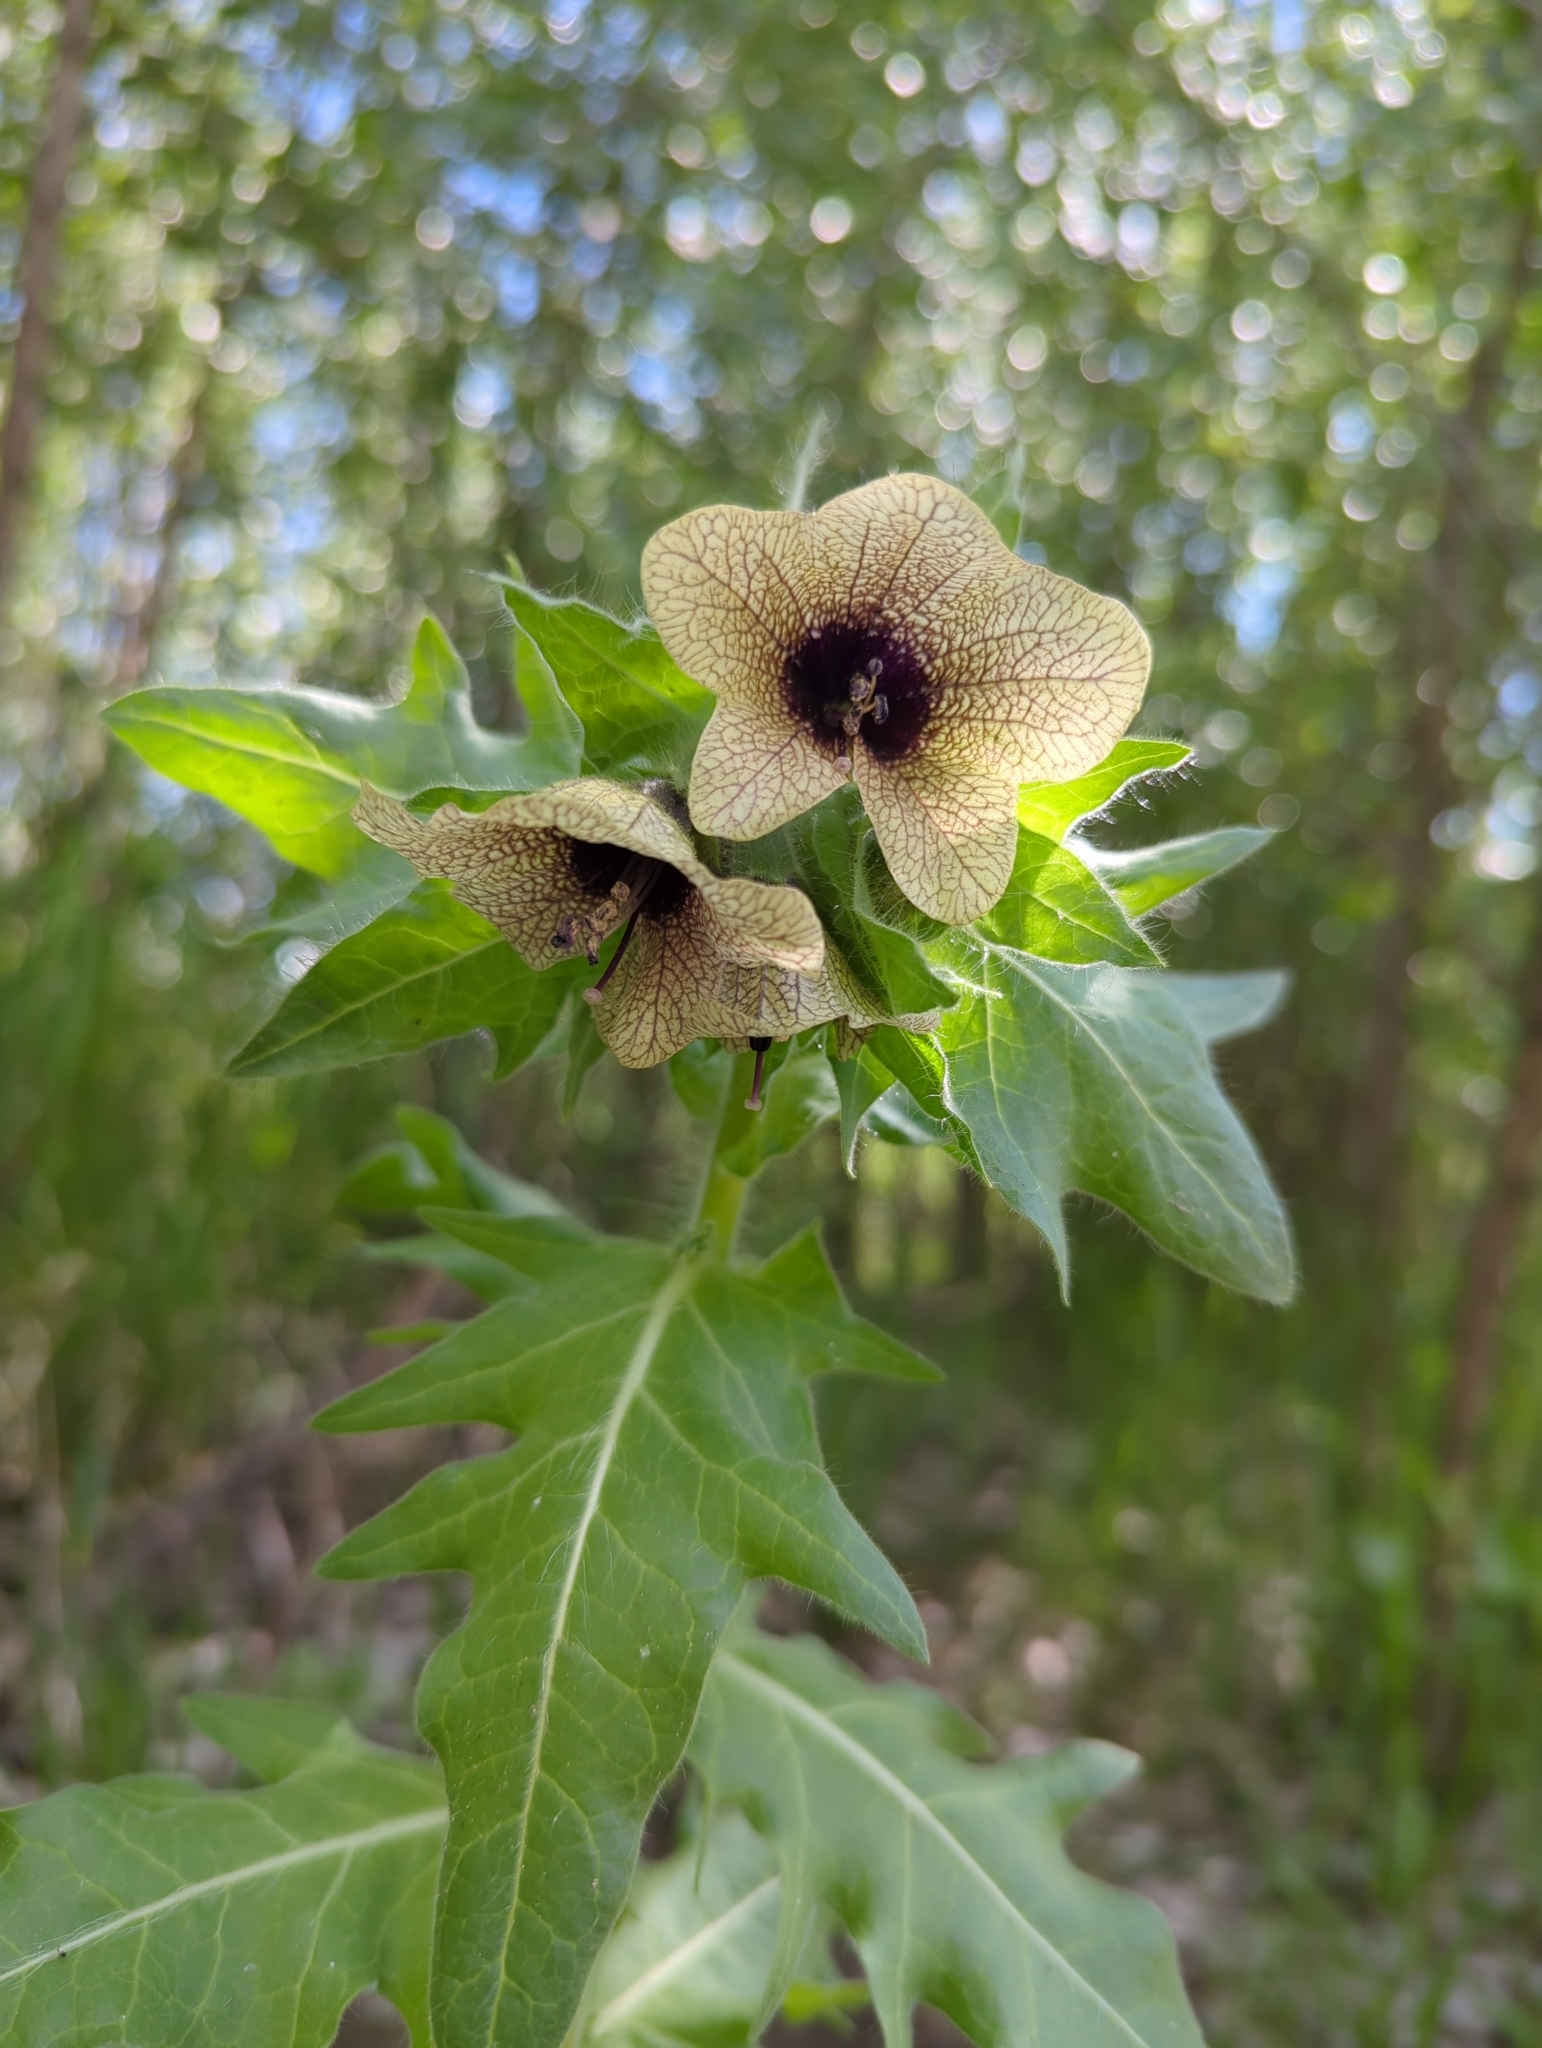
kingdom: Plantae
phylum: Tracheophyta
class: Magnoliopsida
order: Solanales
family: Solanaceae
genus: Hyoscyamus
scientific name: Hyoscyamus niger
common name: Henbane
